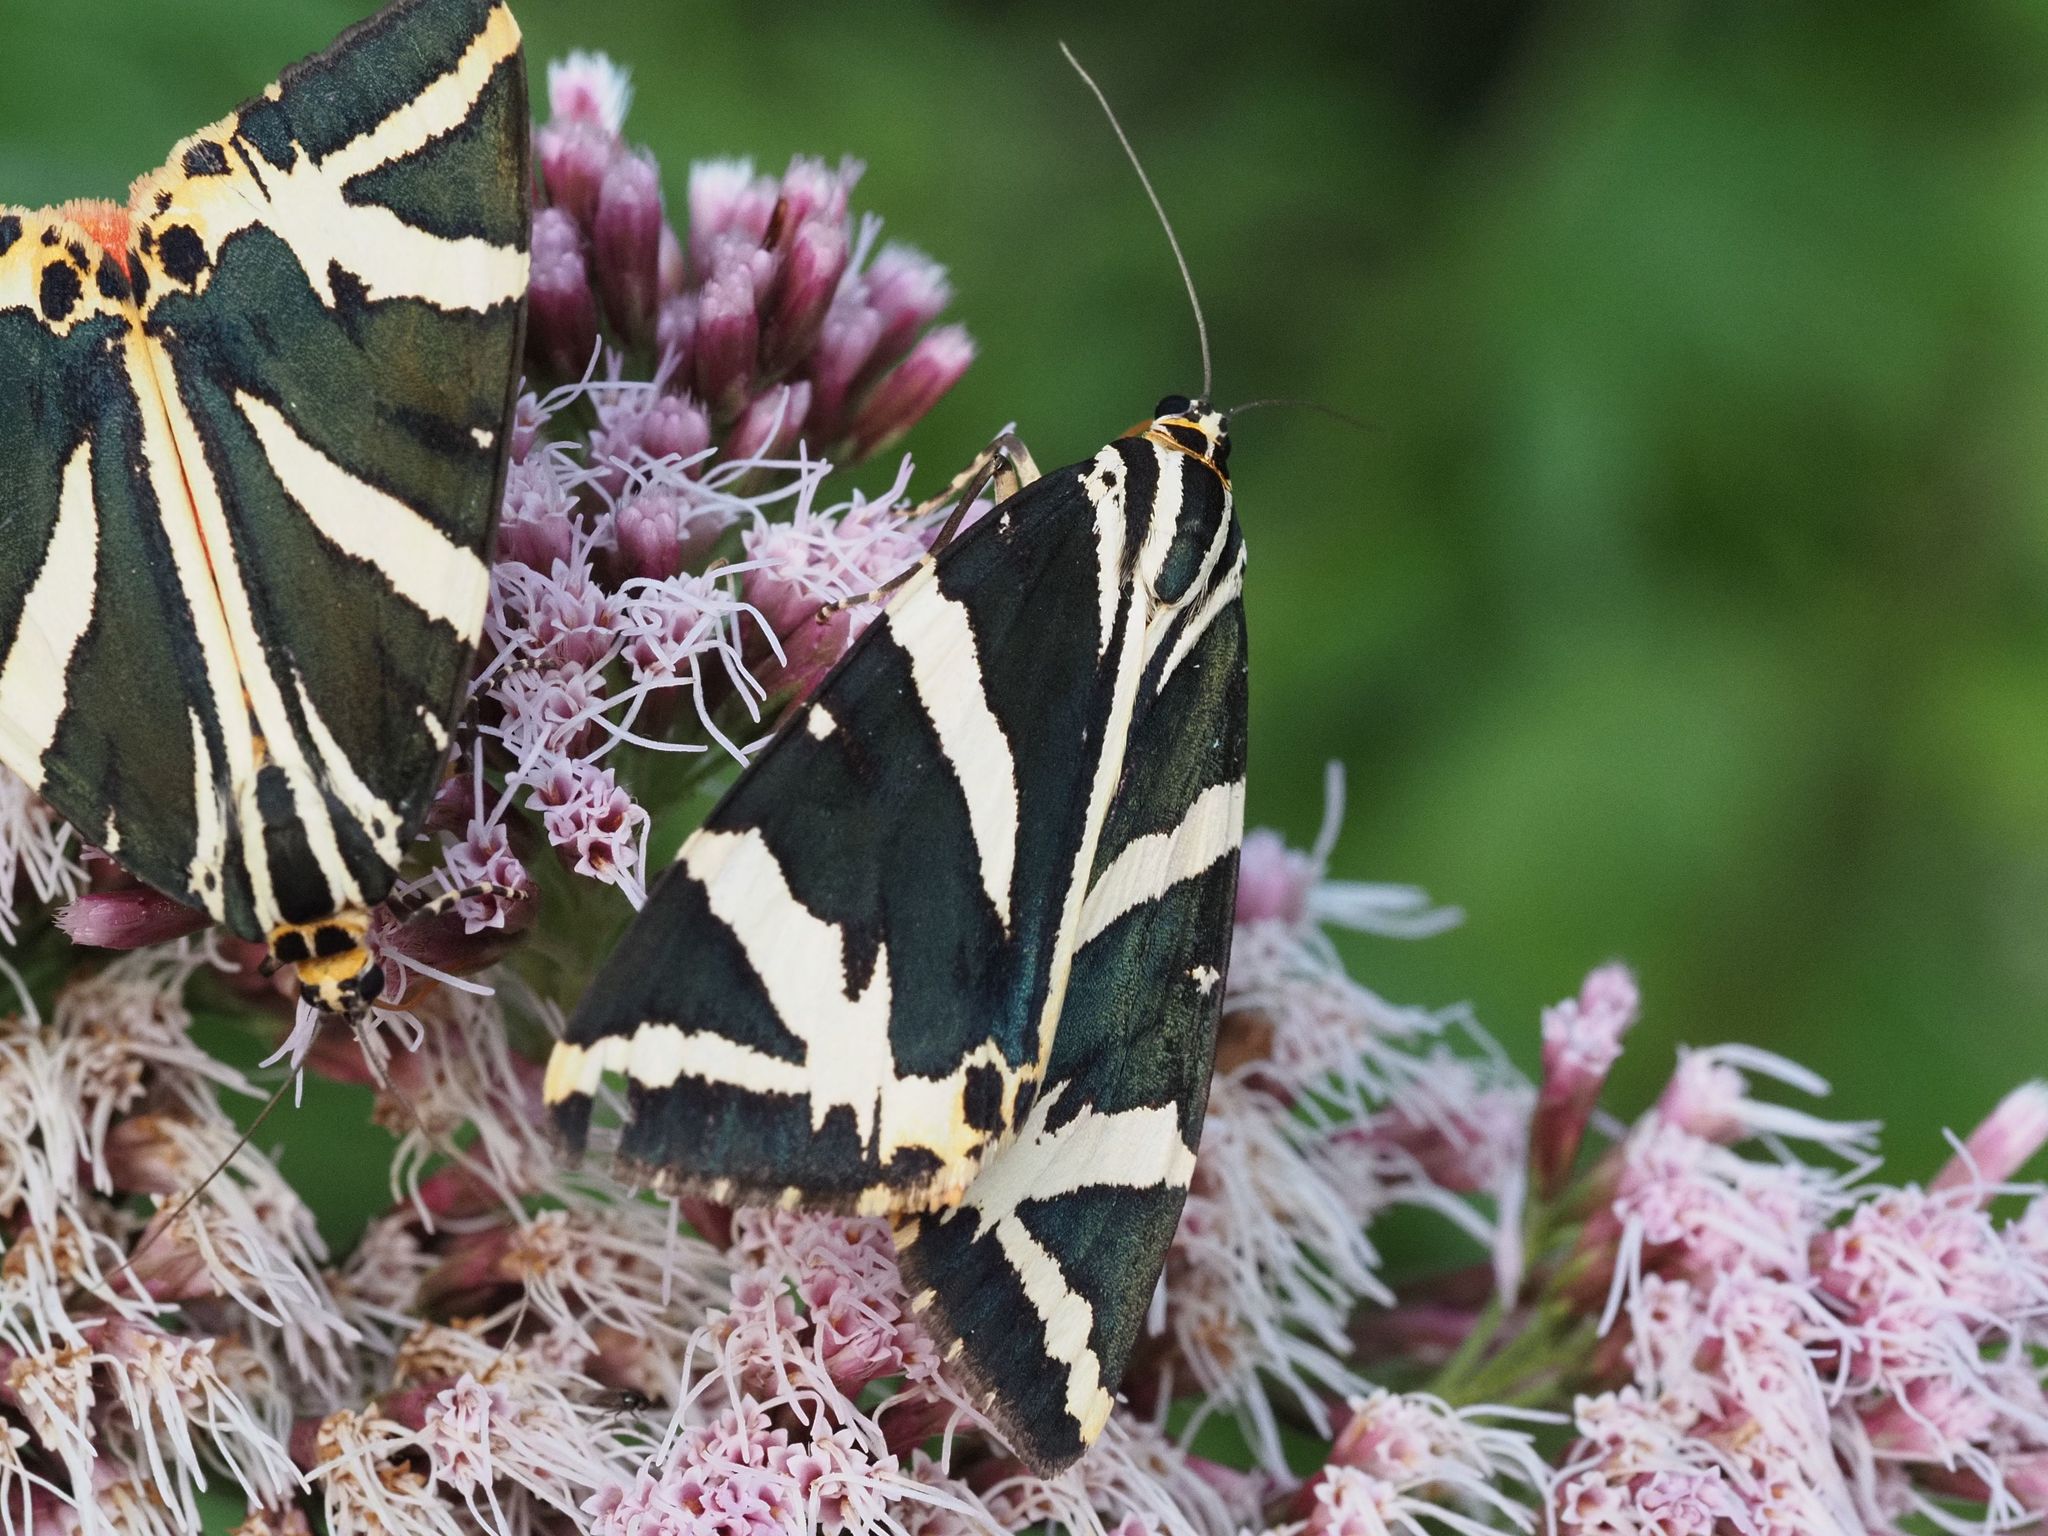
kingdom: Animalia
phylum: Arthropoda
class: Insecta
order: Lepidoptera
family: Erebidae
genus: Euplagia
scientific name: Euplagia quadripunctaria
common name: Jersey tiger
